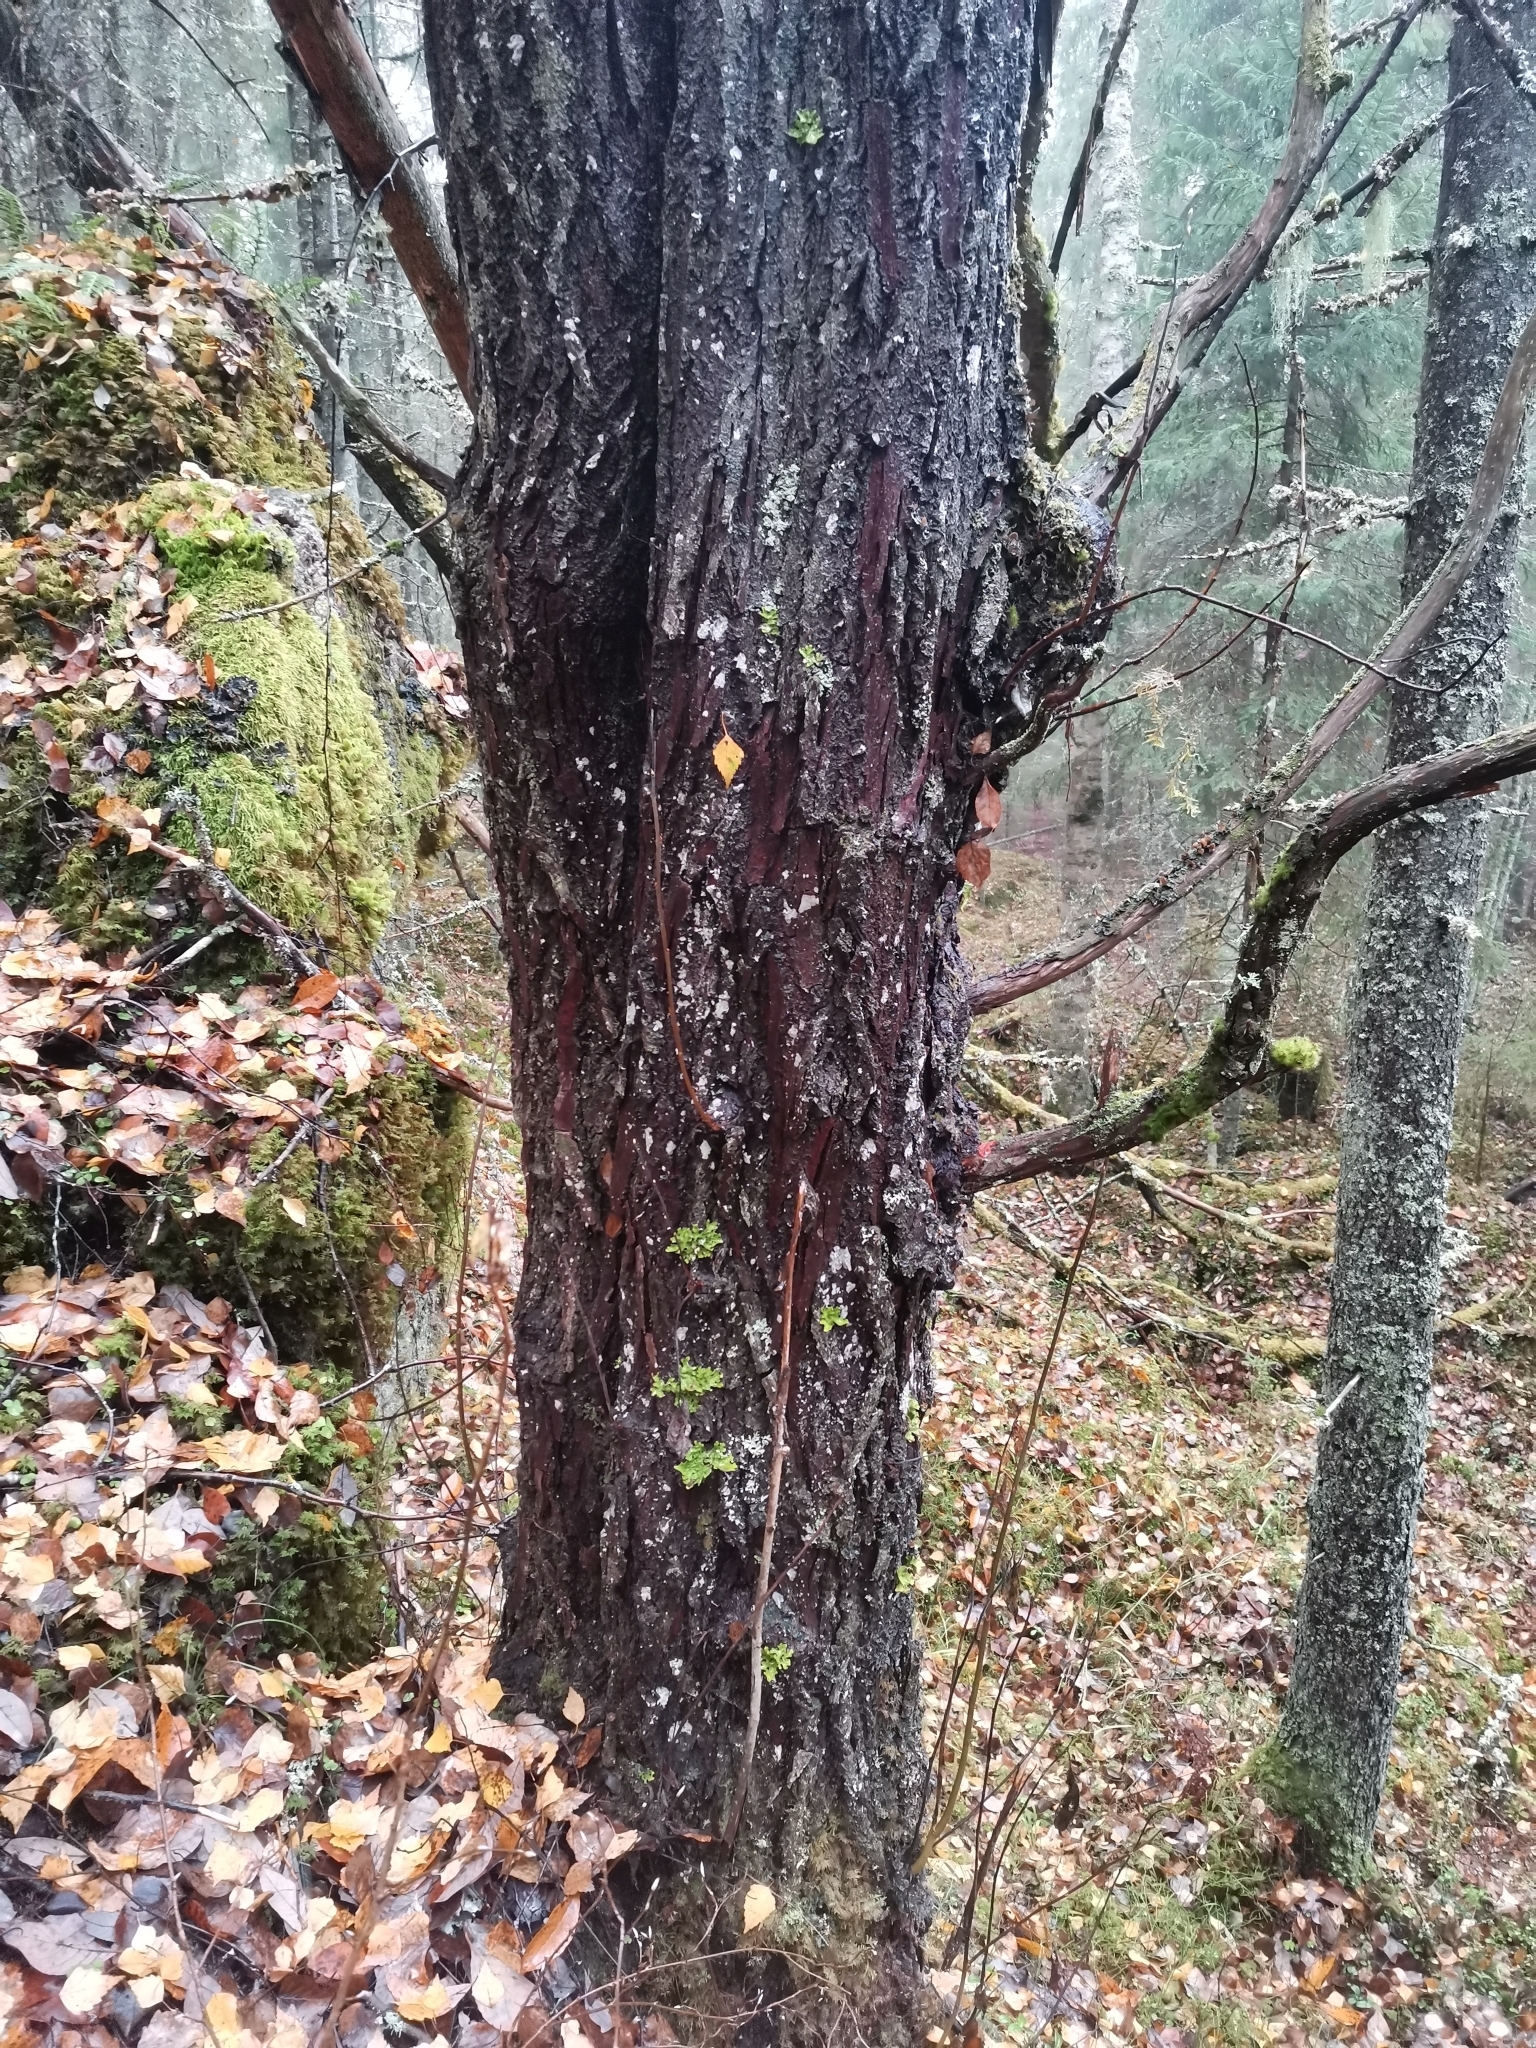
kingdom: Fungi
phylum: Ascomycota
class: Lecanoromycetes
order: Peltigerales
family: Lobariaceae
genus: Lobaria
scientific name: Lobaria pulmonaria
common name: Lungwort
